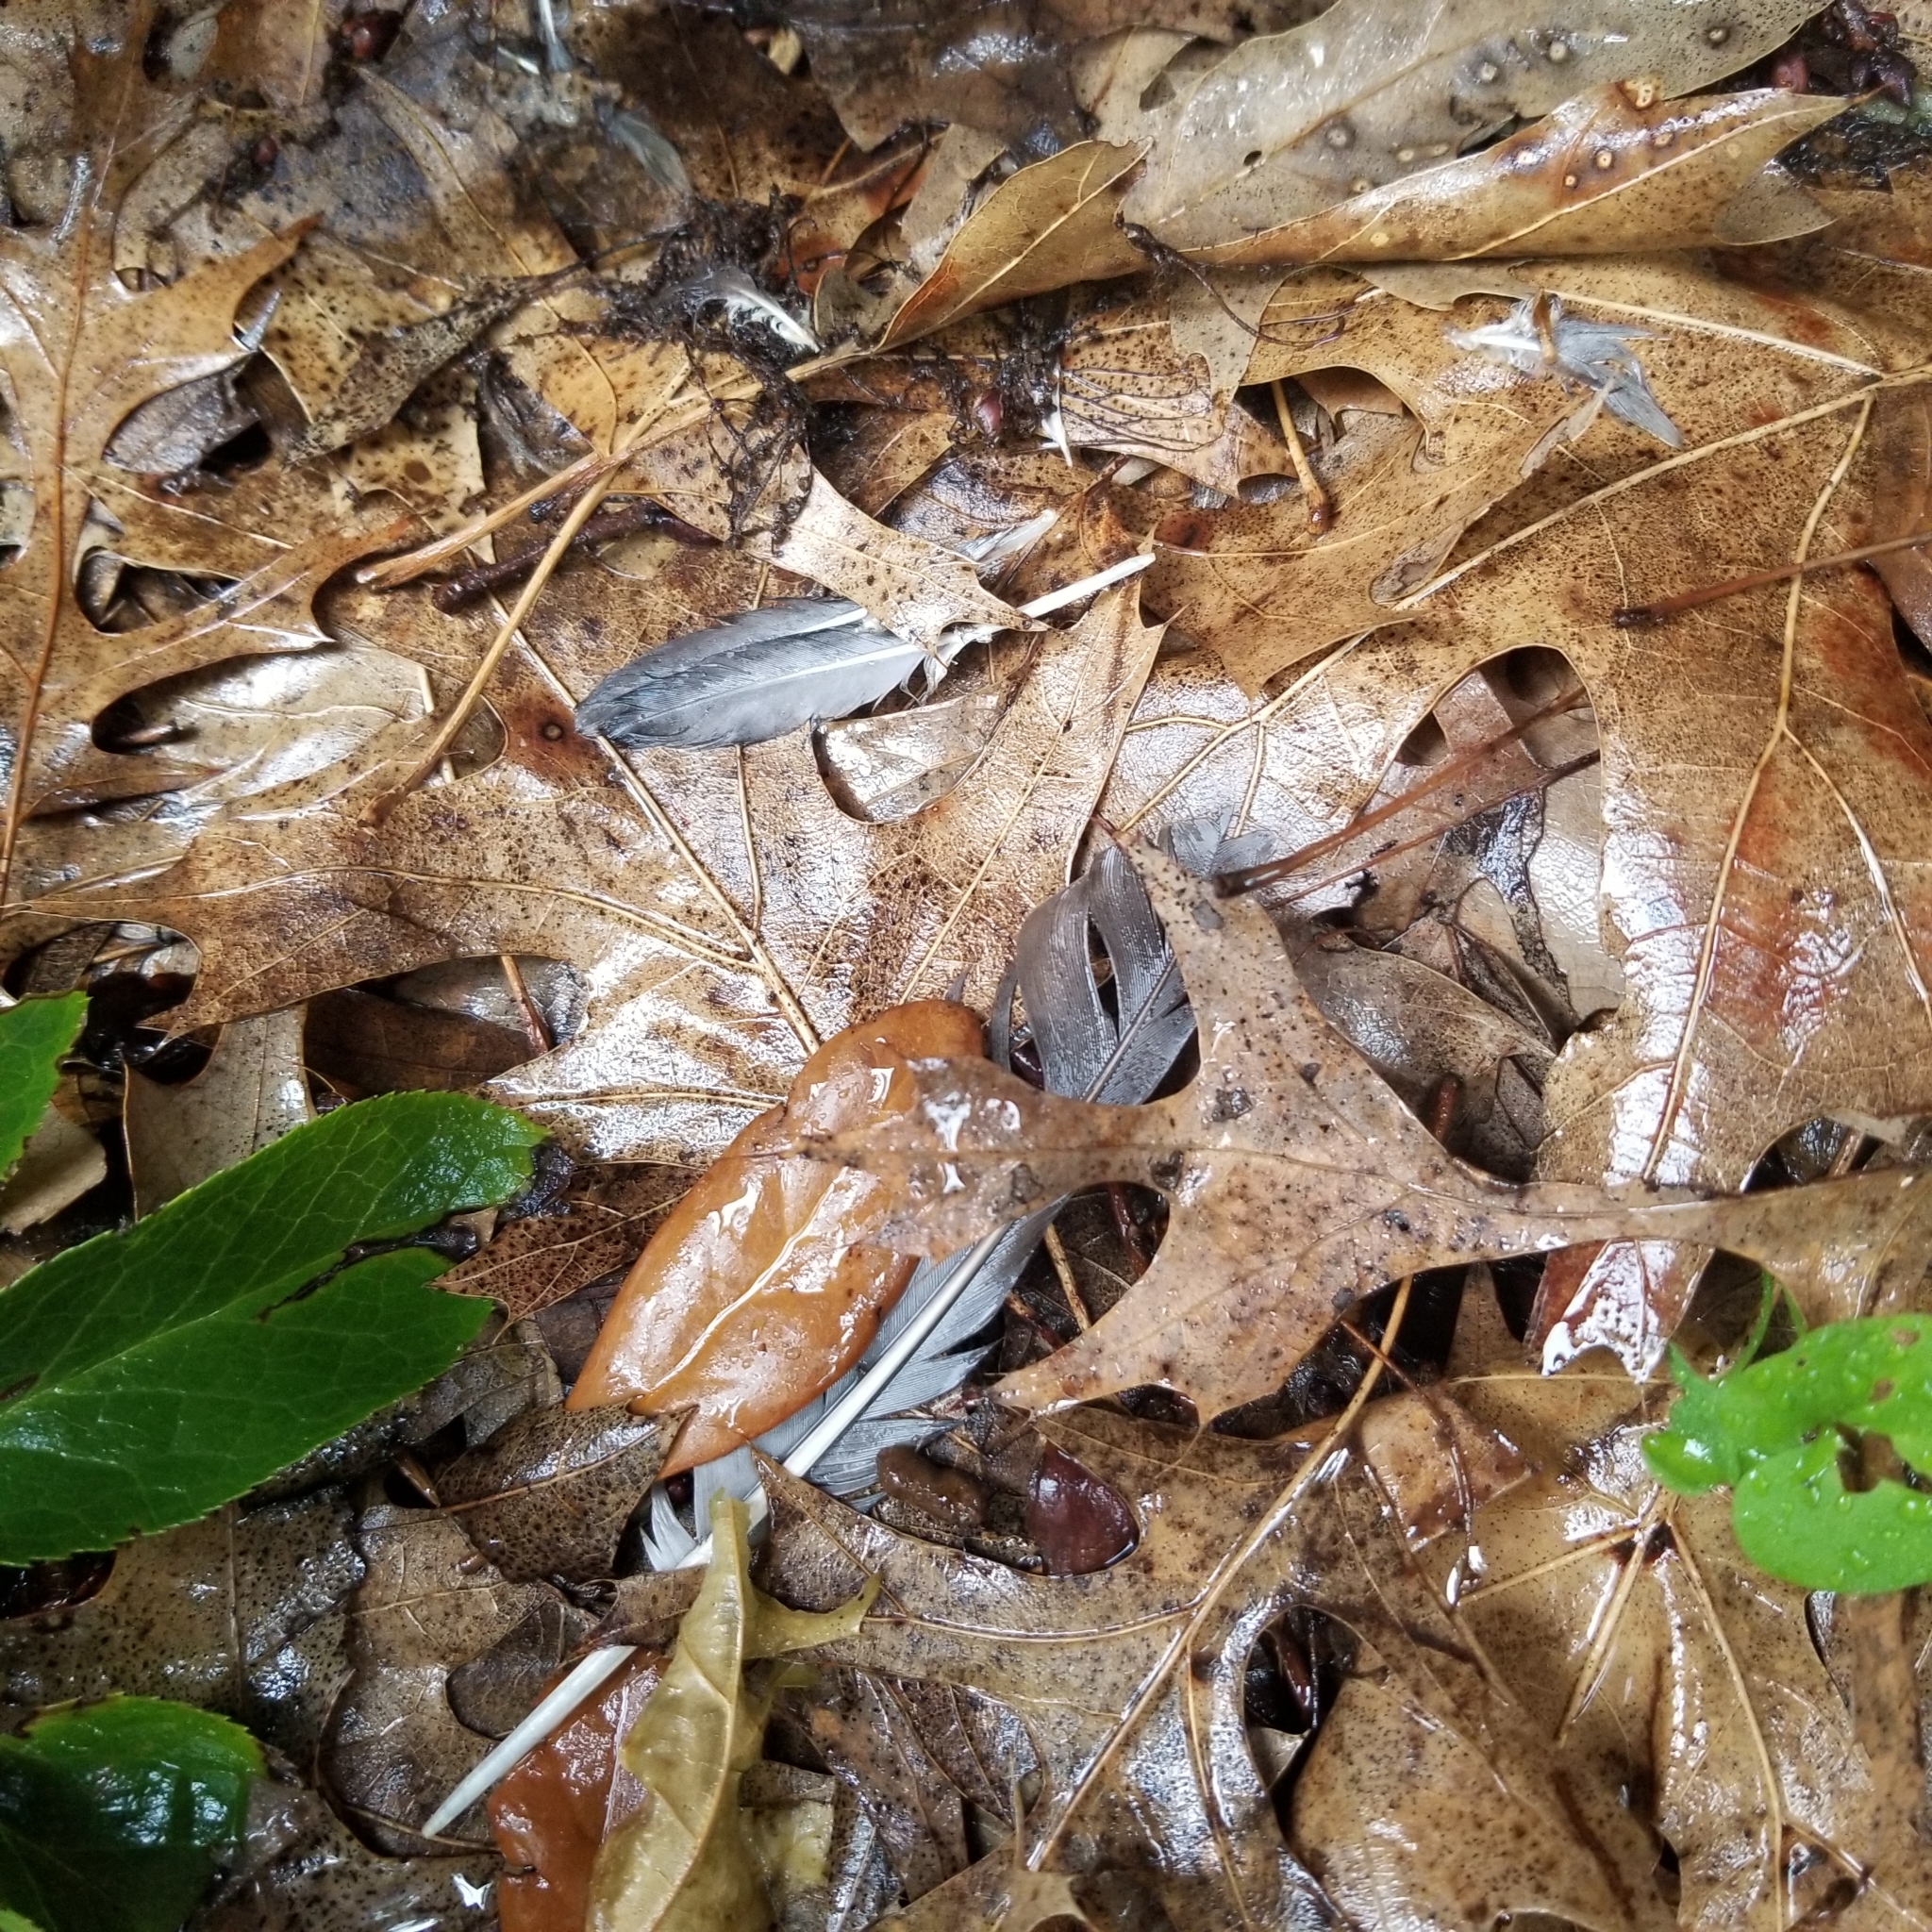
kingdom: Animalia
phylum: Chordata
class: Aves
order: Columbiformes
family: Columbidae
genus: Zenaida
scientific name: Zenaida asiatica
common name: White-winged dove
